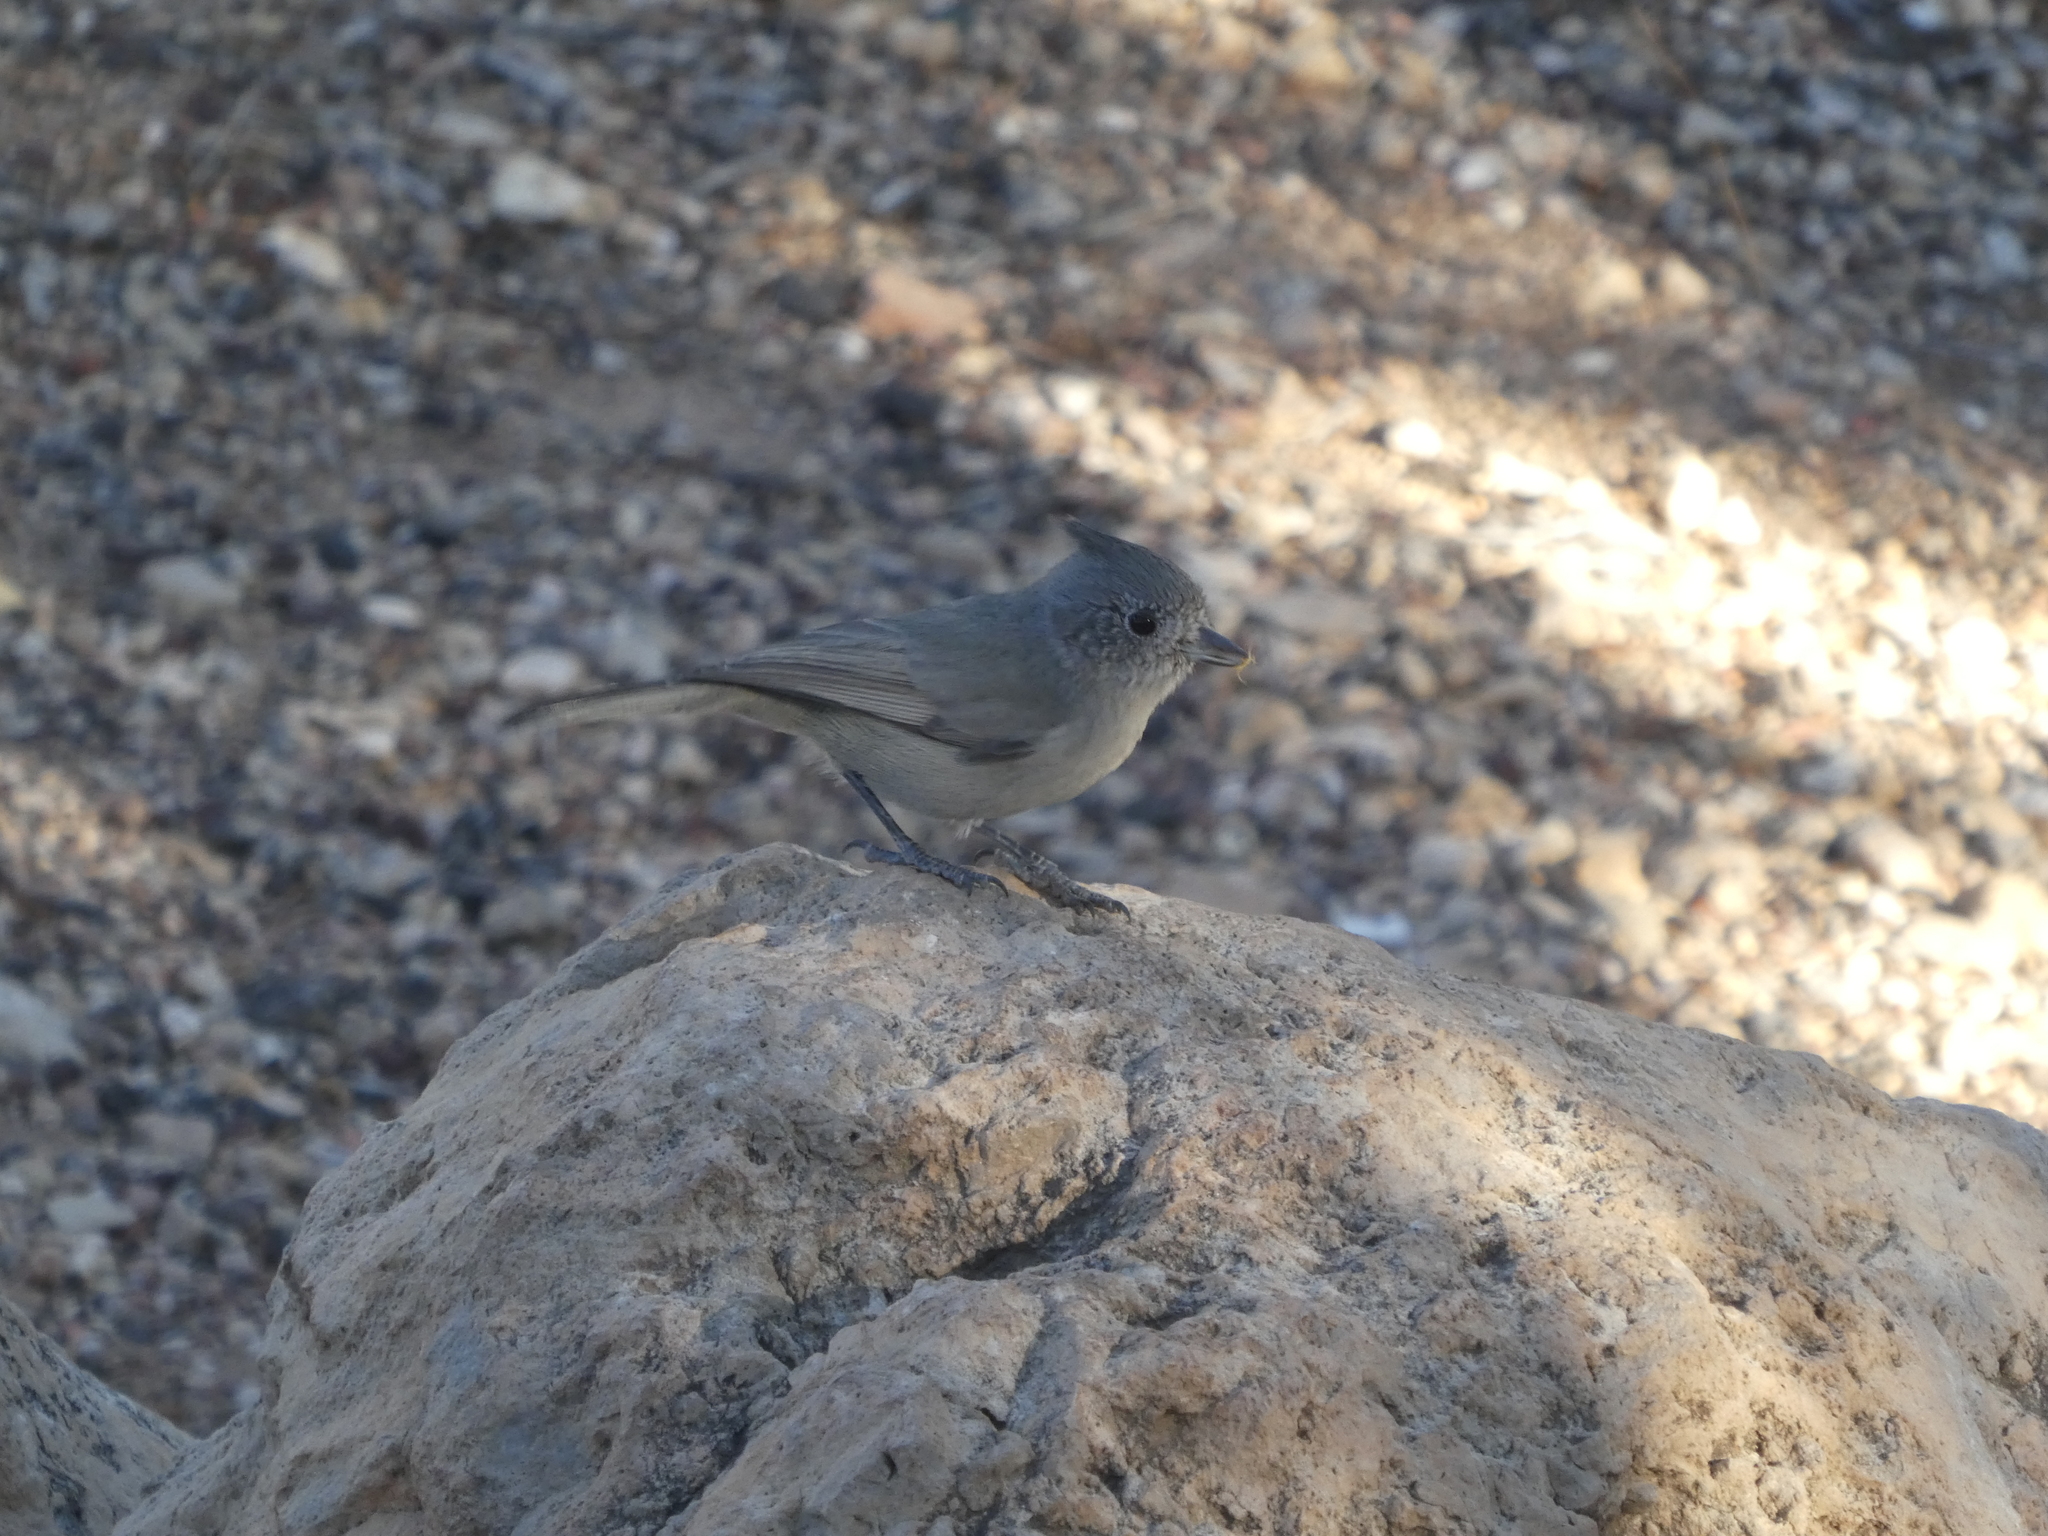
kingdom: Animalia
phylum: Chordata
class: Aves
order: Passeriformes
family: Paridae
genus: Baeolophus
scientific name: Baeolophus ridgwayi
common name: Juniper titmouse
